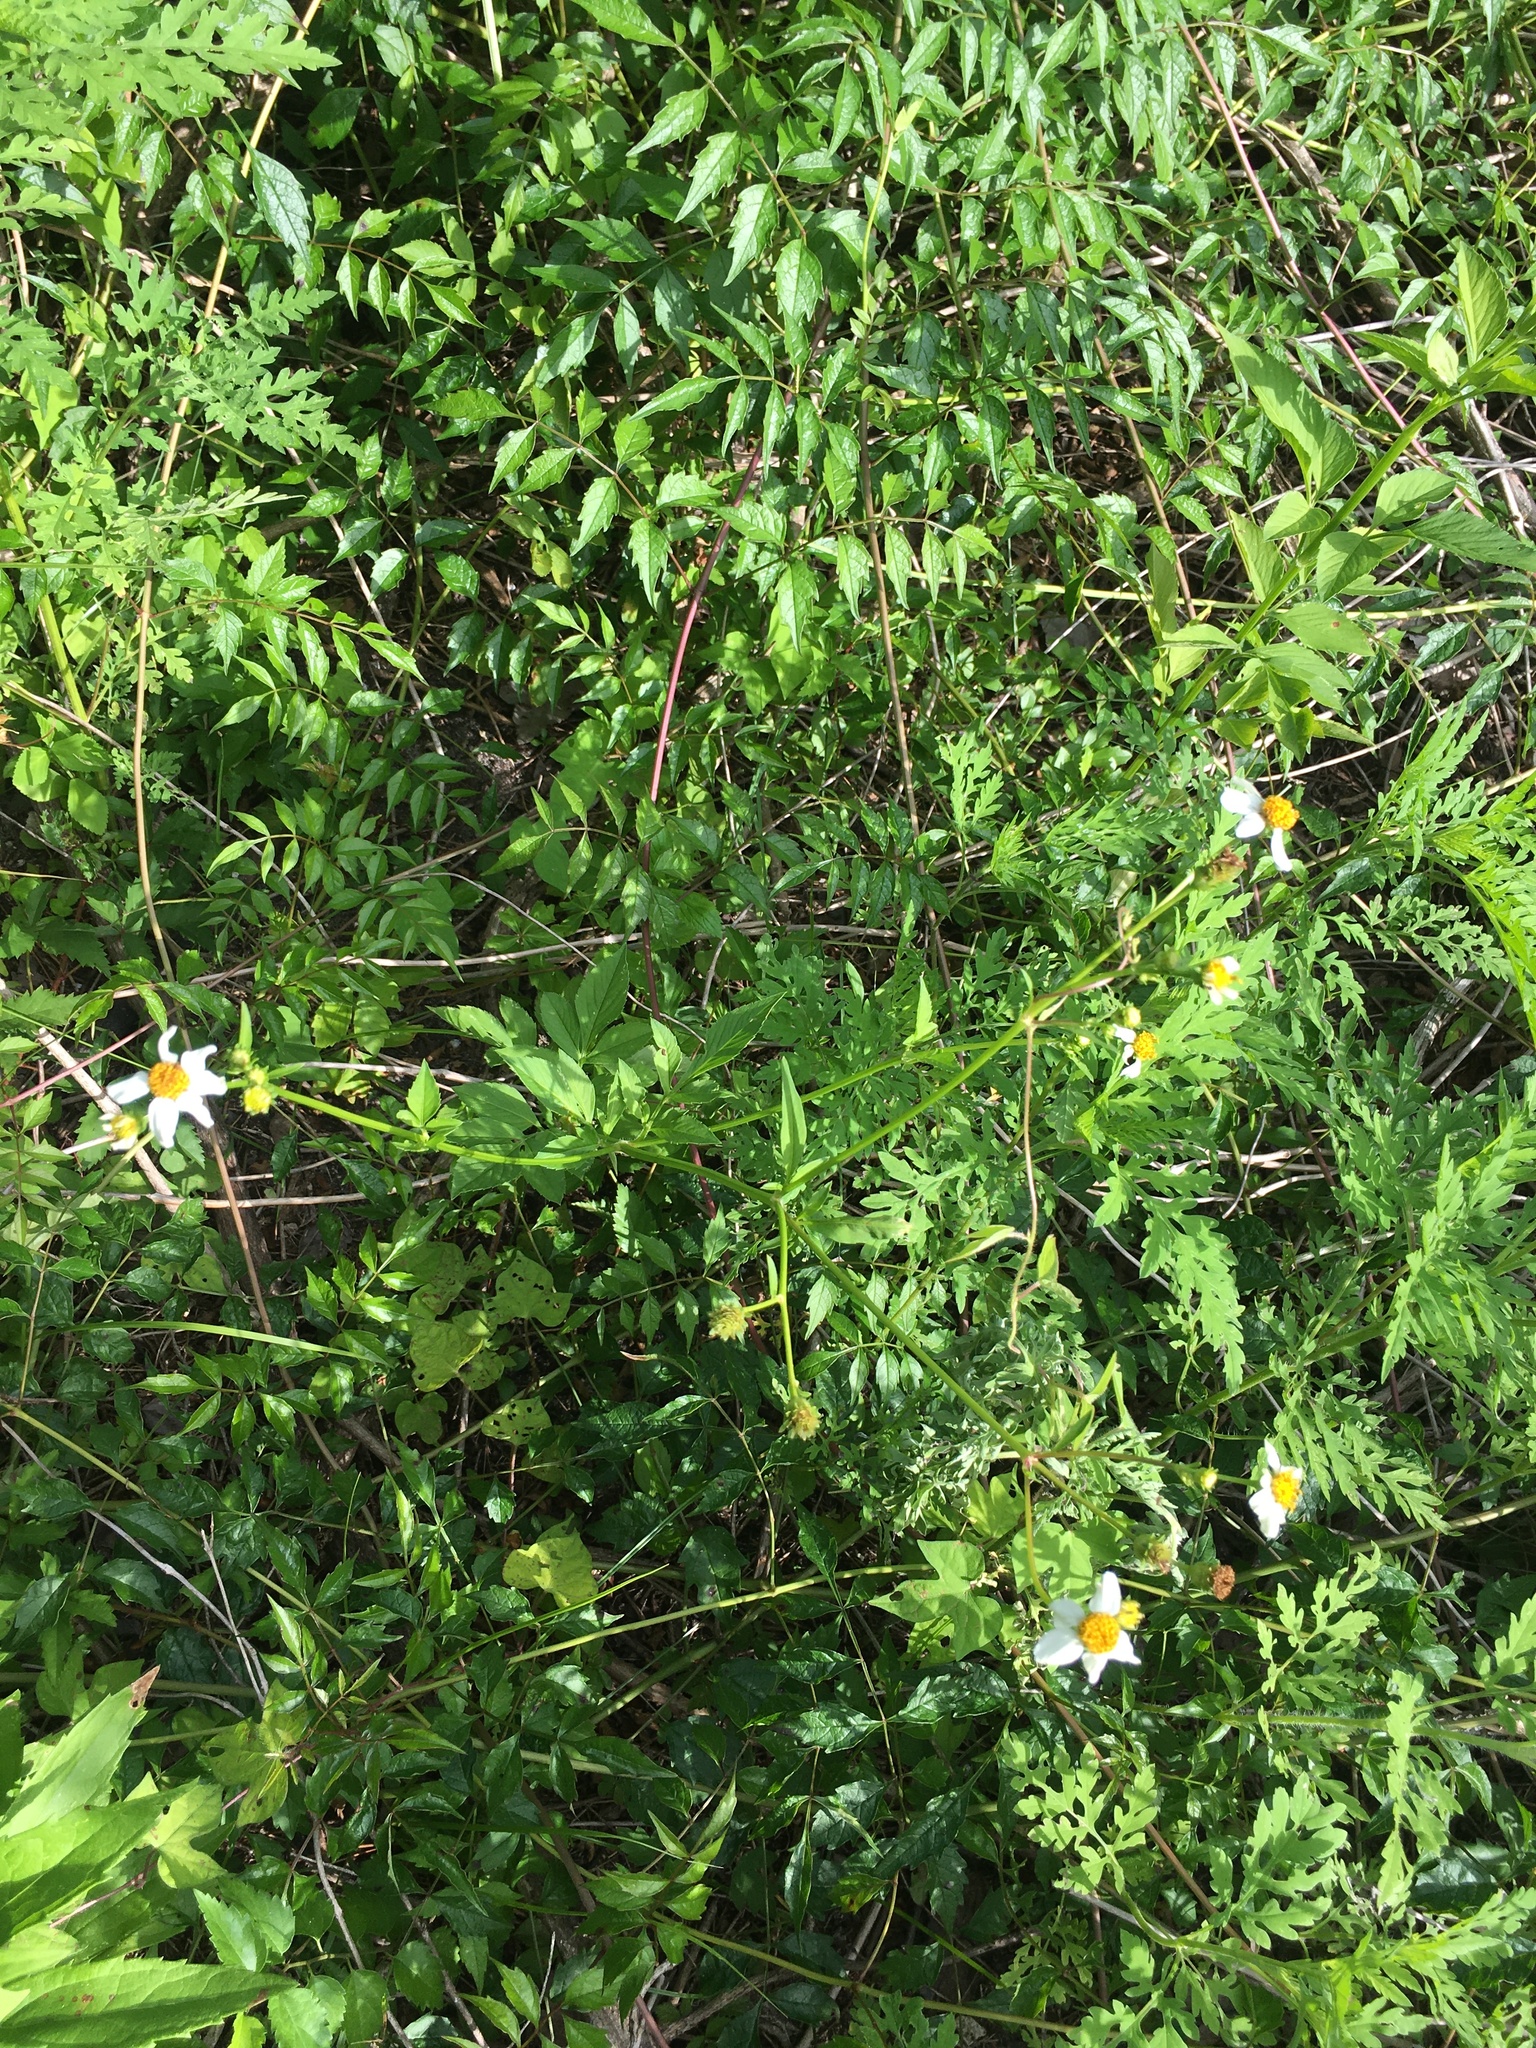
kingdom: Plantae
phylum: Tracheophyta
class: Magnoliopsida
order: Asterales
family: Asteraceae
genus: Bidens
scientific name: Bidens alba
